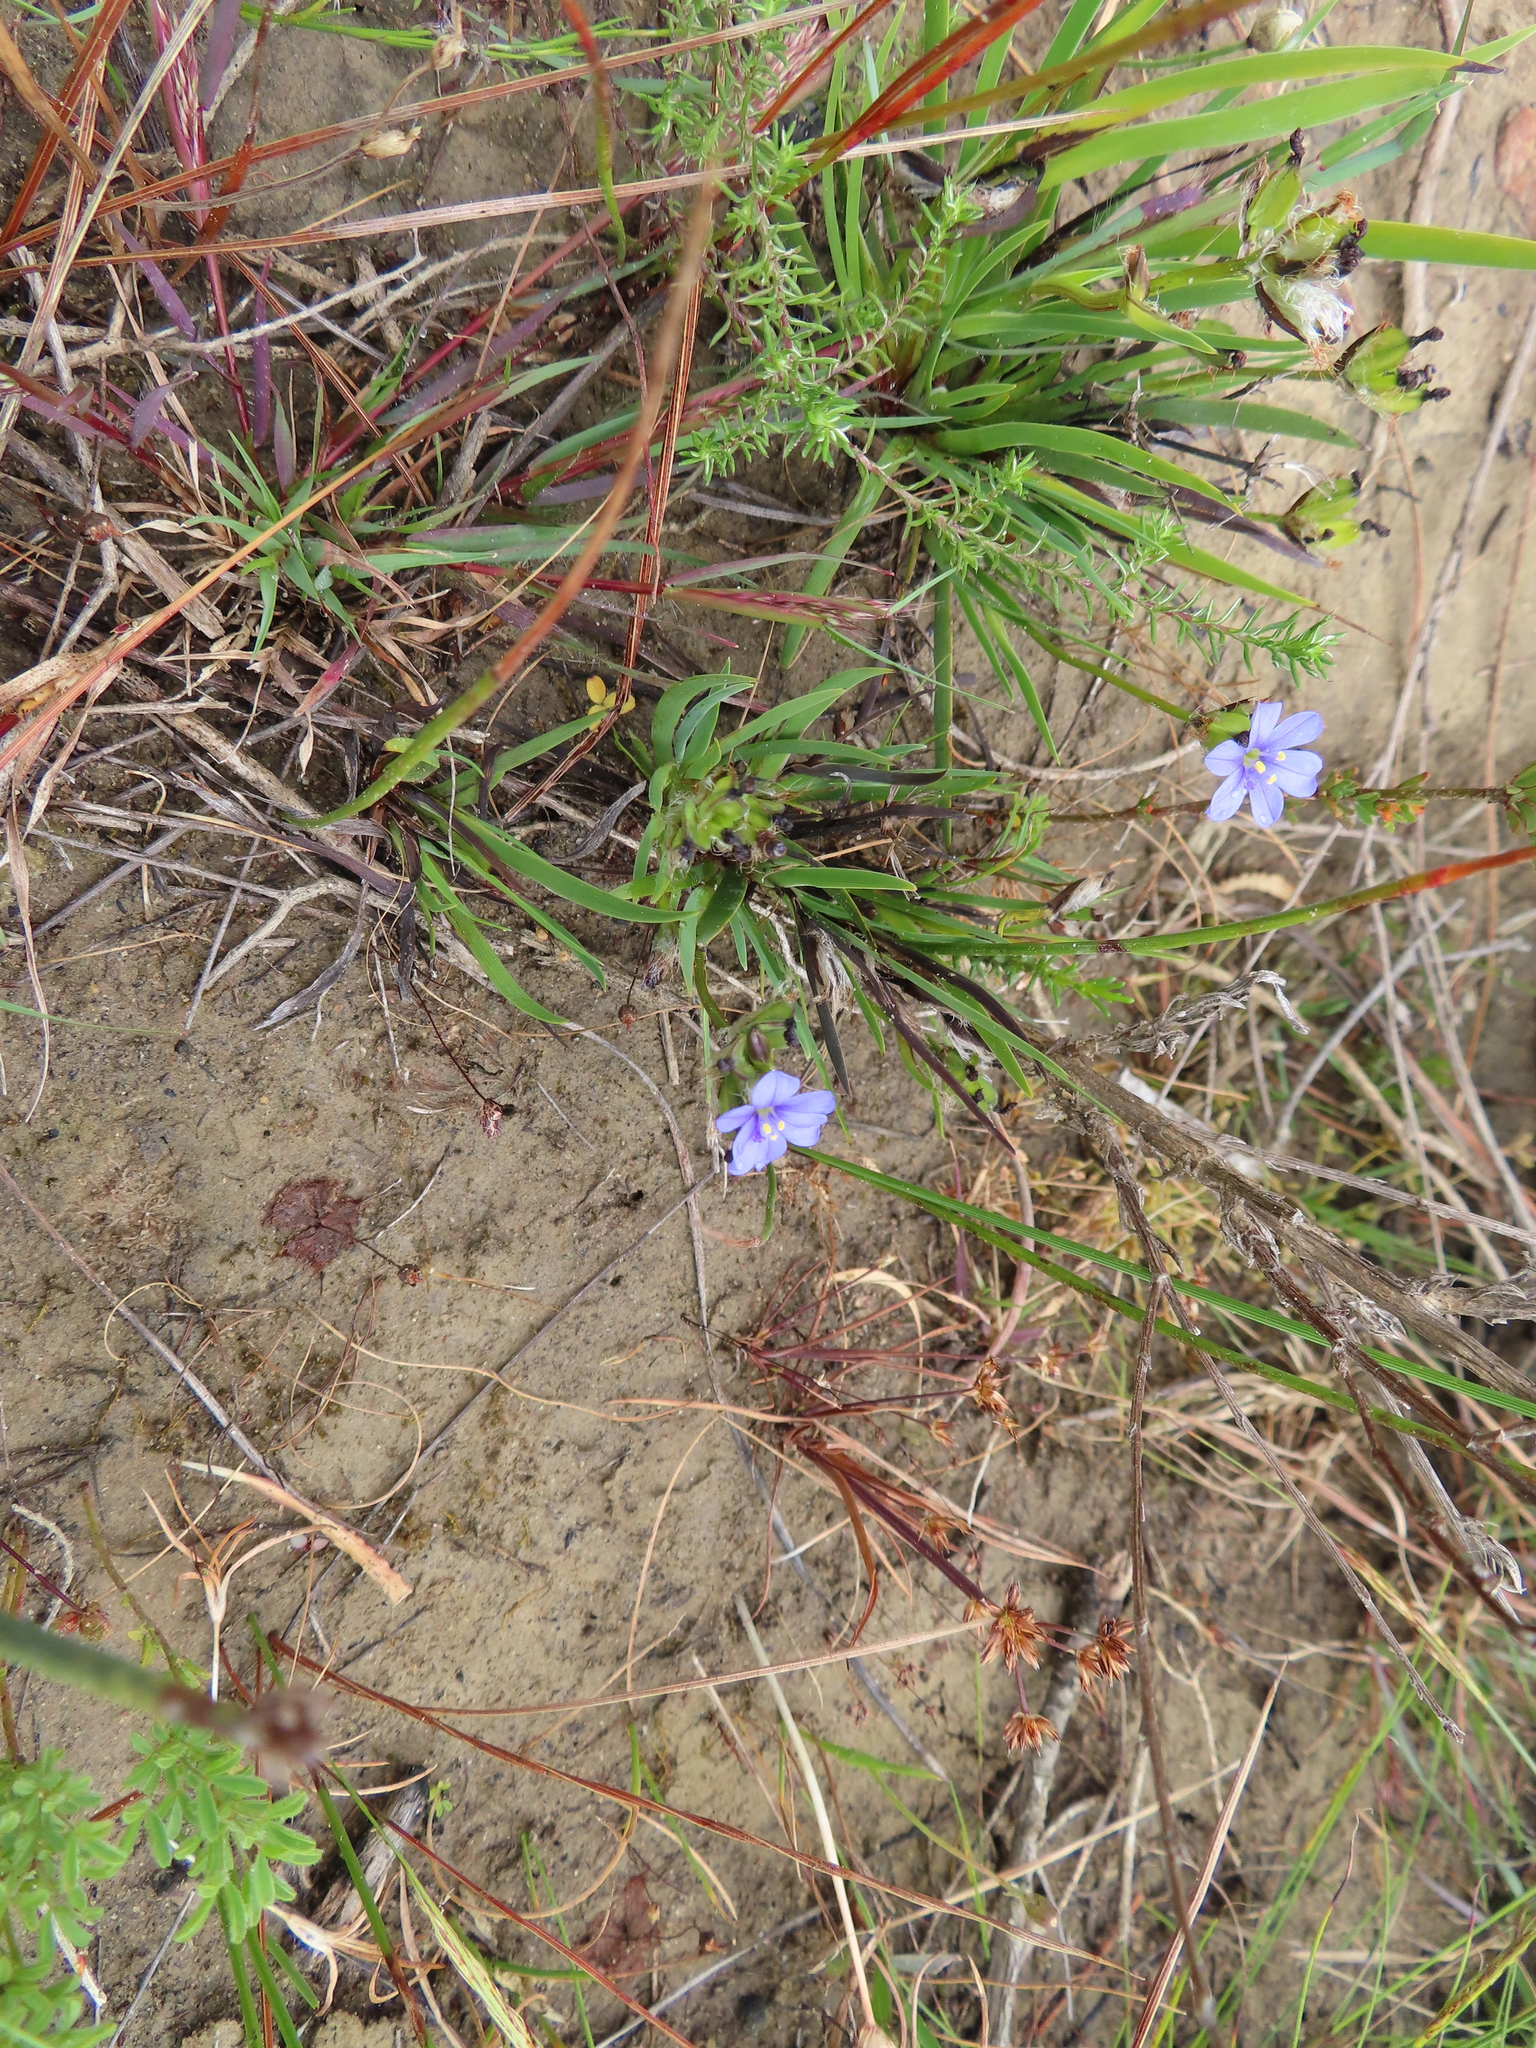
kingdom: Plantae
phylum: Tracheophyta
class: Liliopsida
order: Asparagales
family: Iridaceae
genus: Aristea
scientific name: Aristea africana
